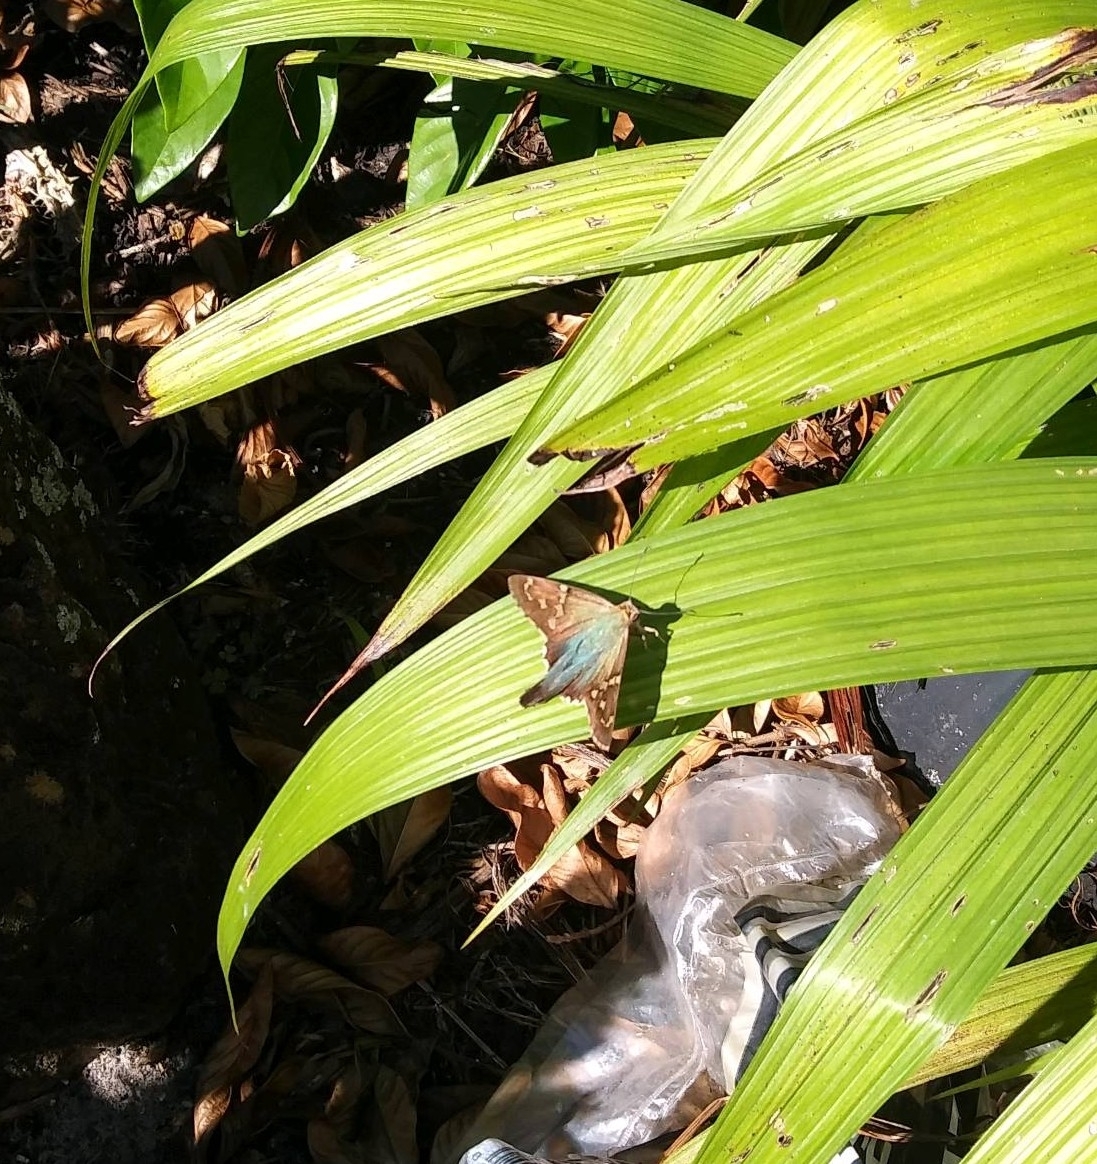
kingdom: Animalia
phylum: Arthropoda
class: Insecta
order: Lepidoptera
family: Hesperiidae
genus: Urbanus
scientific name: Urbanus proteus
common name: Long-tailed skipper
